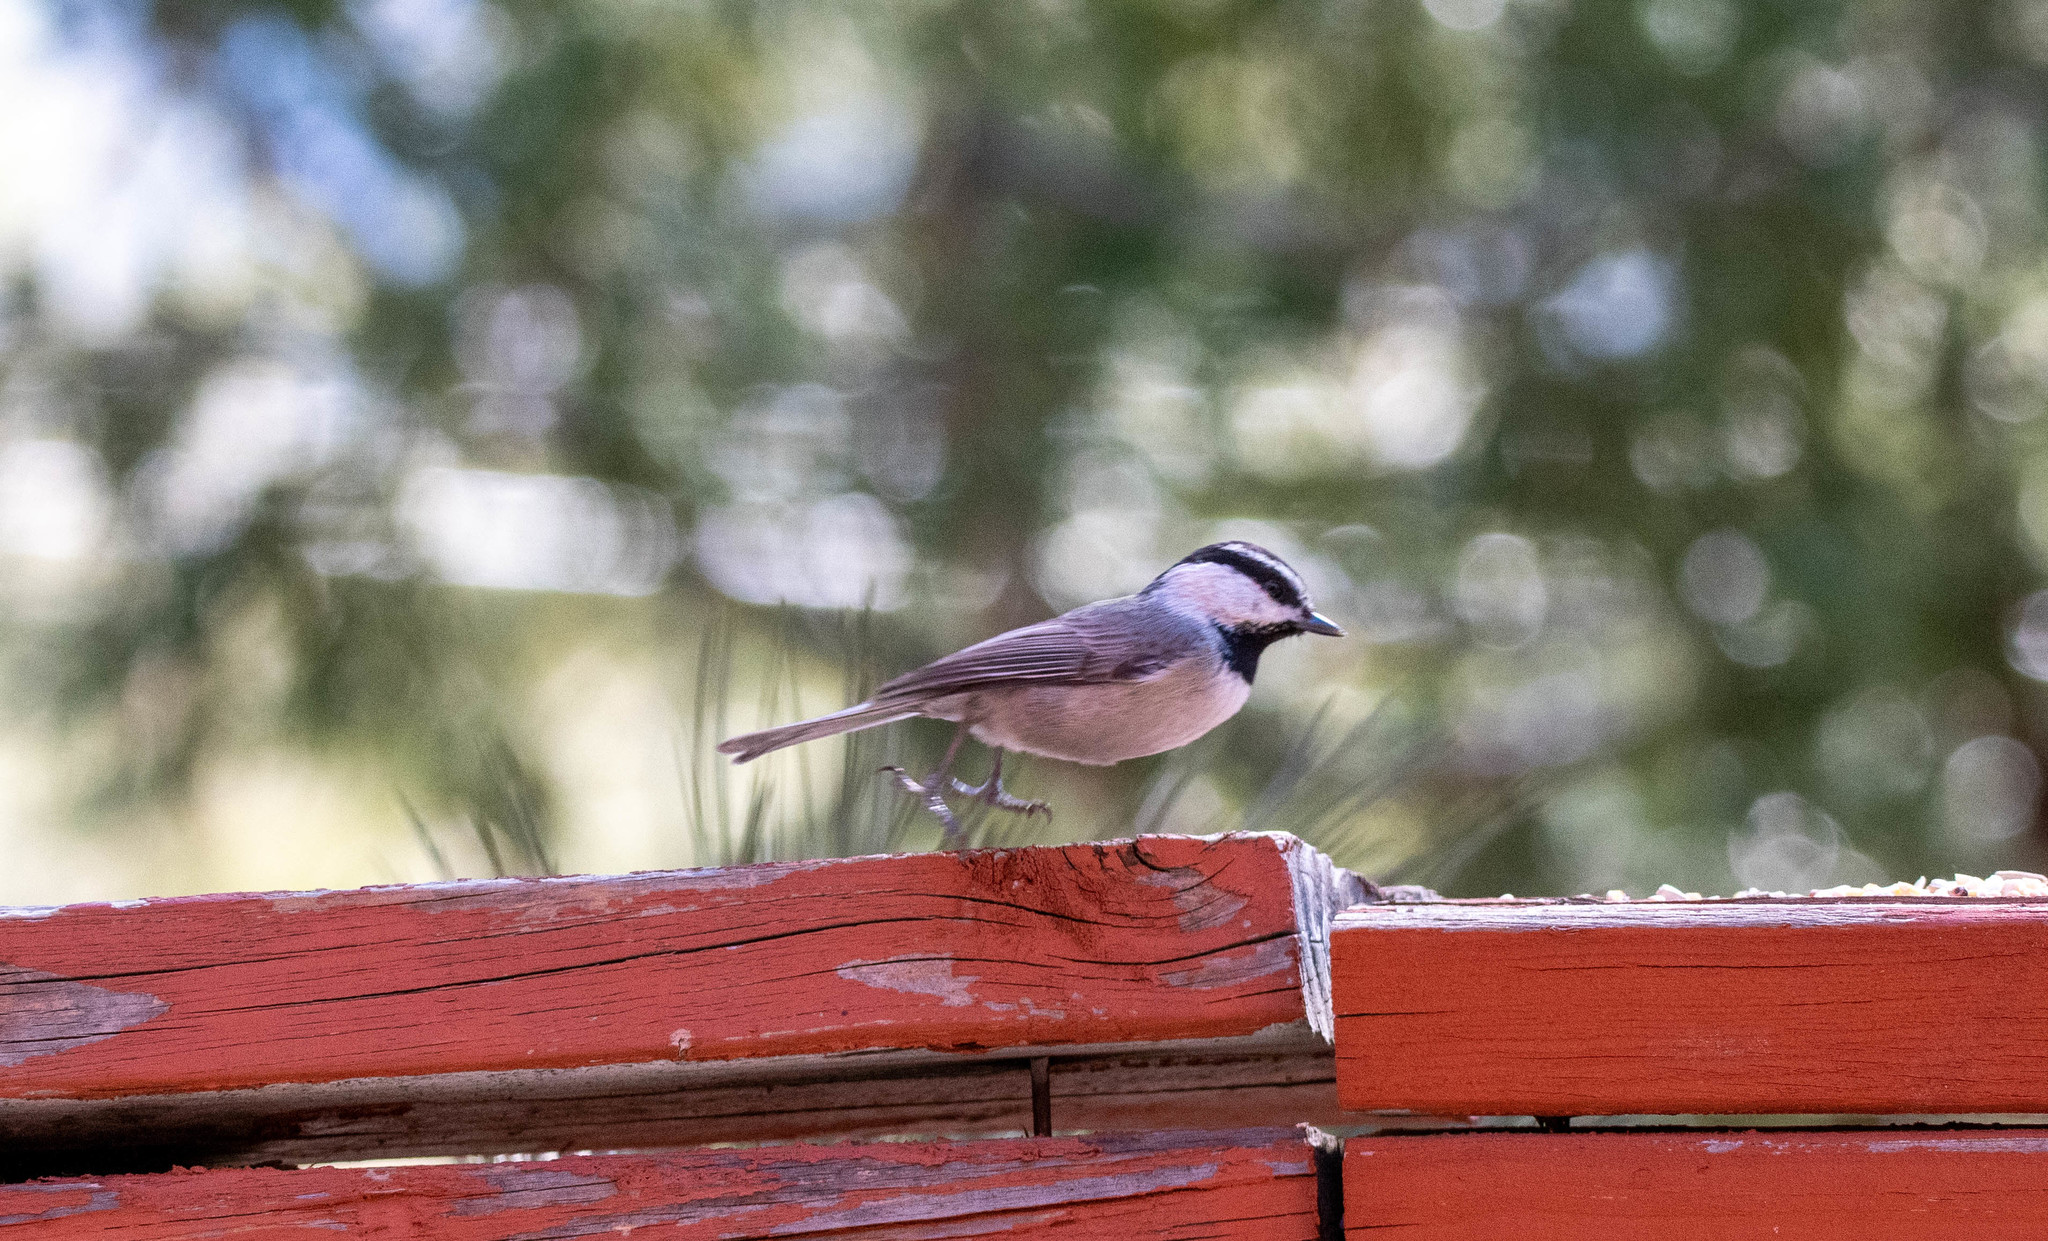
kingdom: Animalia
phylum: Chordata
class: Aves
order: Passeriformes
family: Paridae
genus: Poecile
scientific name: Poecile gambeli
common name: Mountain chickadee
